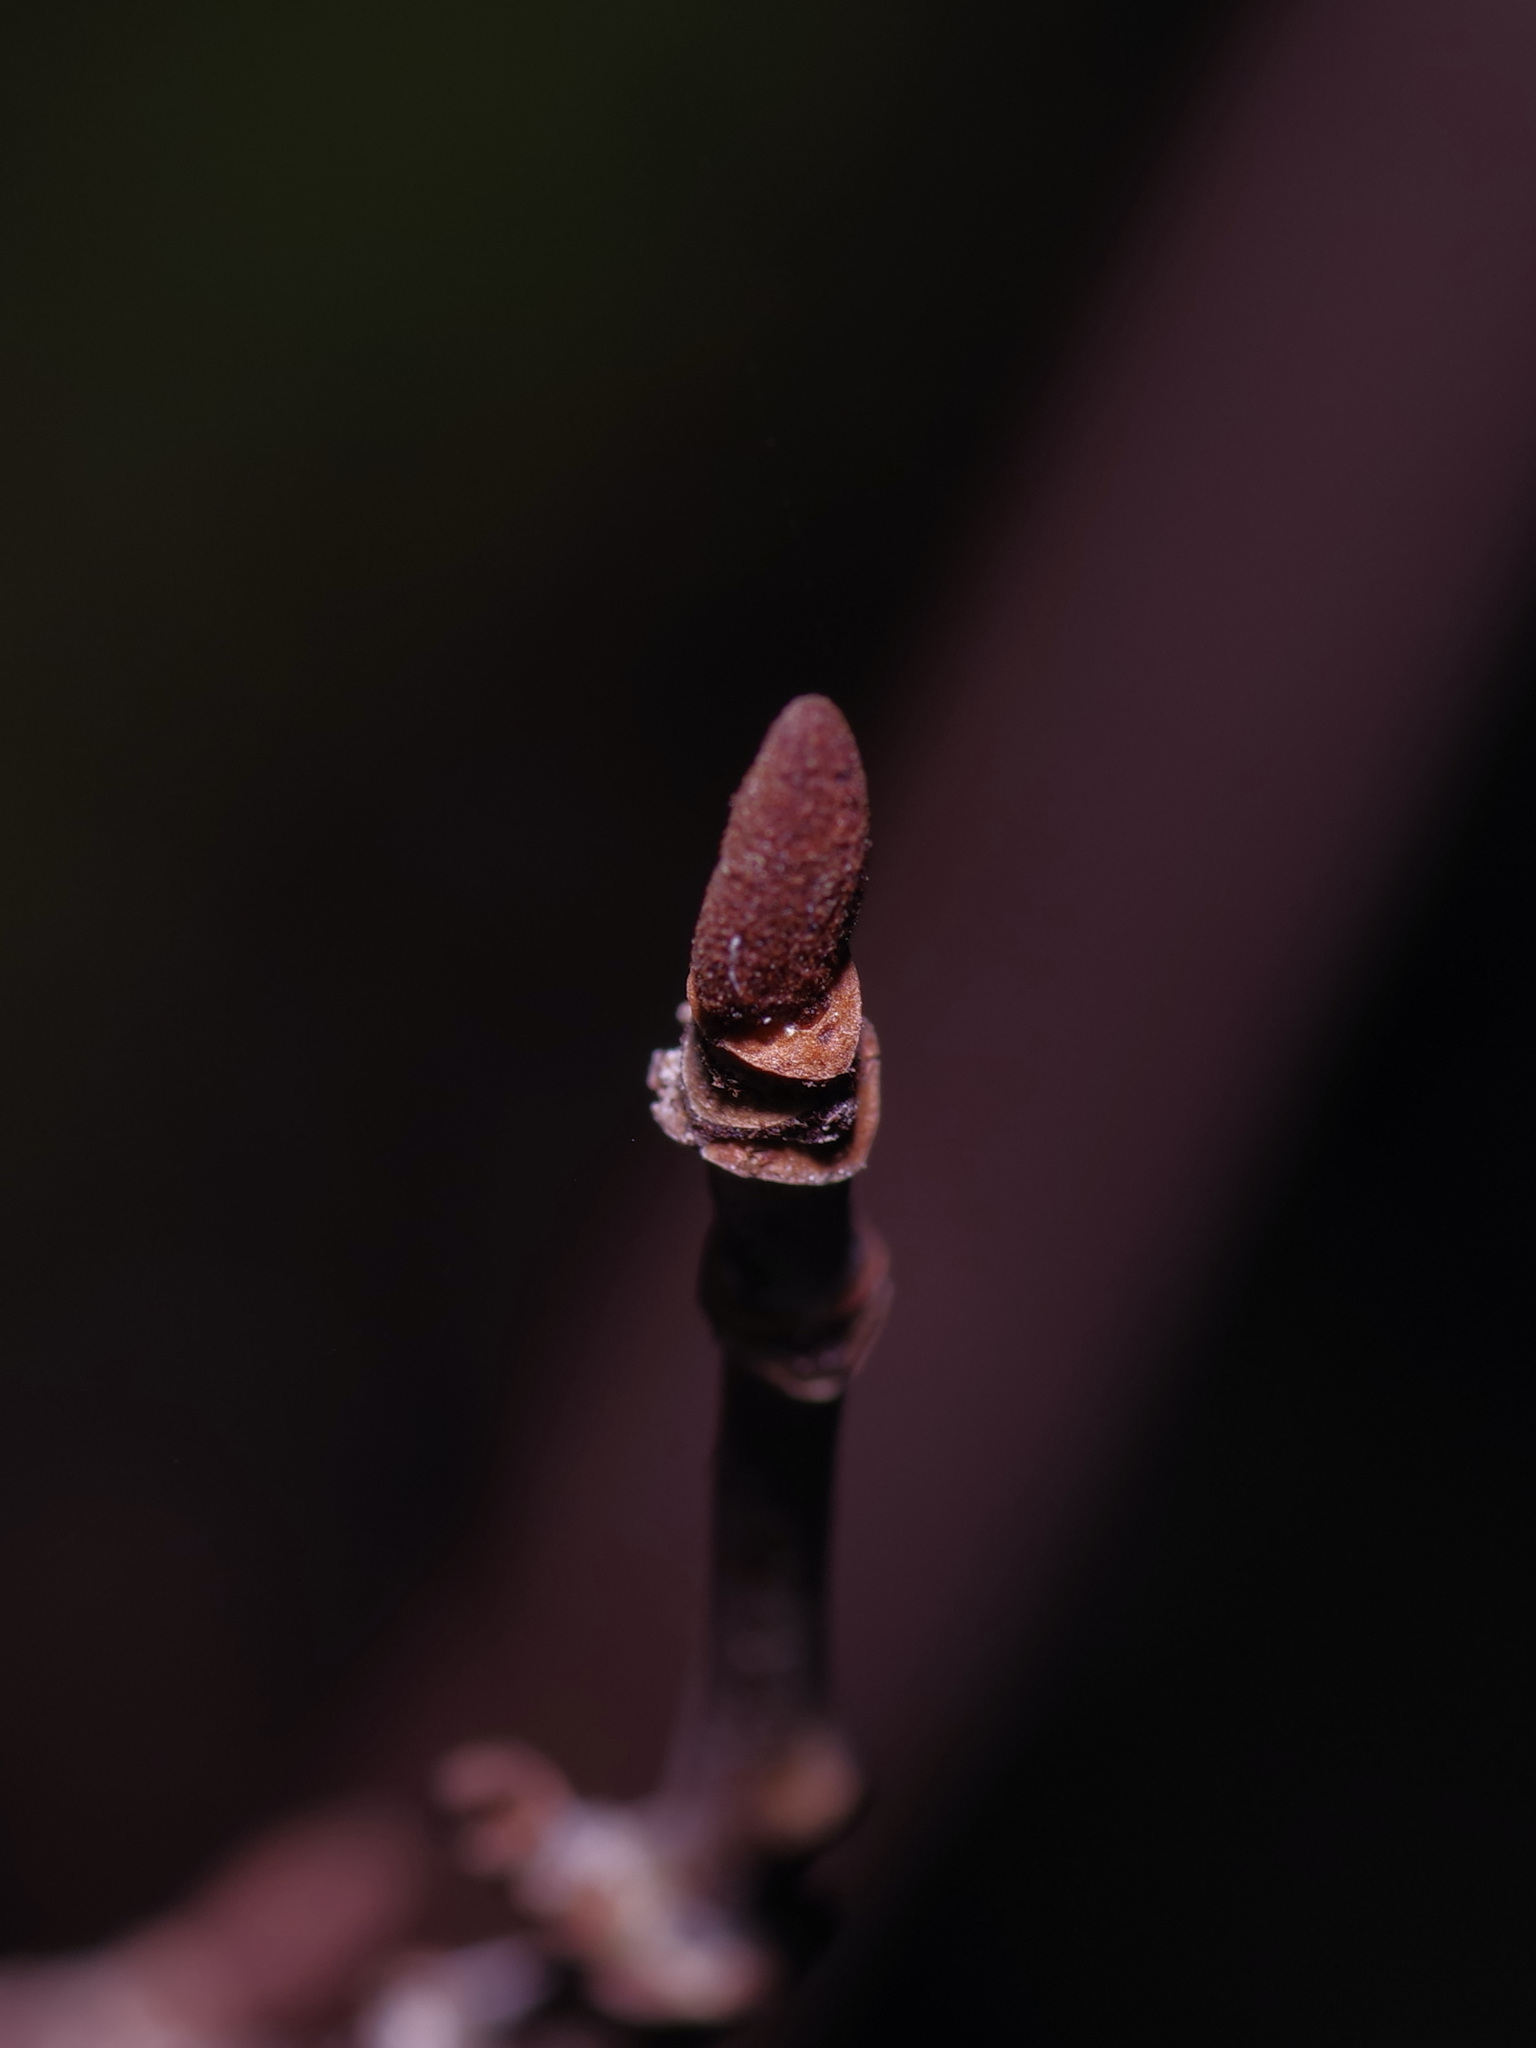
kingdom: Plantae
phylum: Tracheophyta
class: Magnoliopsida
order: Dipsacales
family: Viburnaceae
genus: Viburnum
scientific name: Viburnum rufidulum
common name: Blue haw
